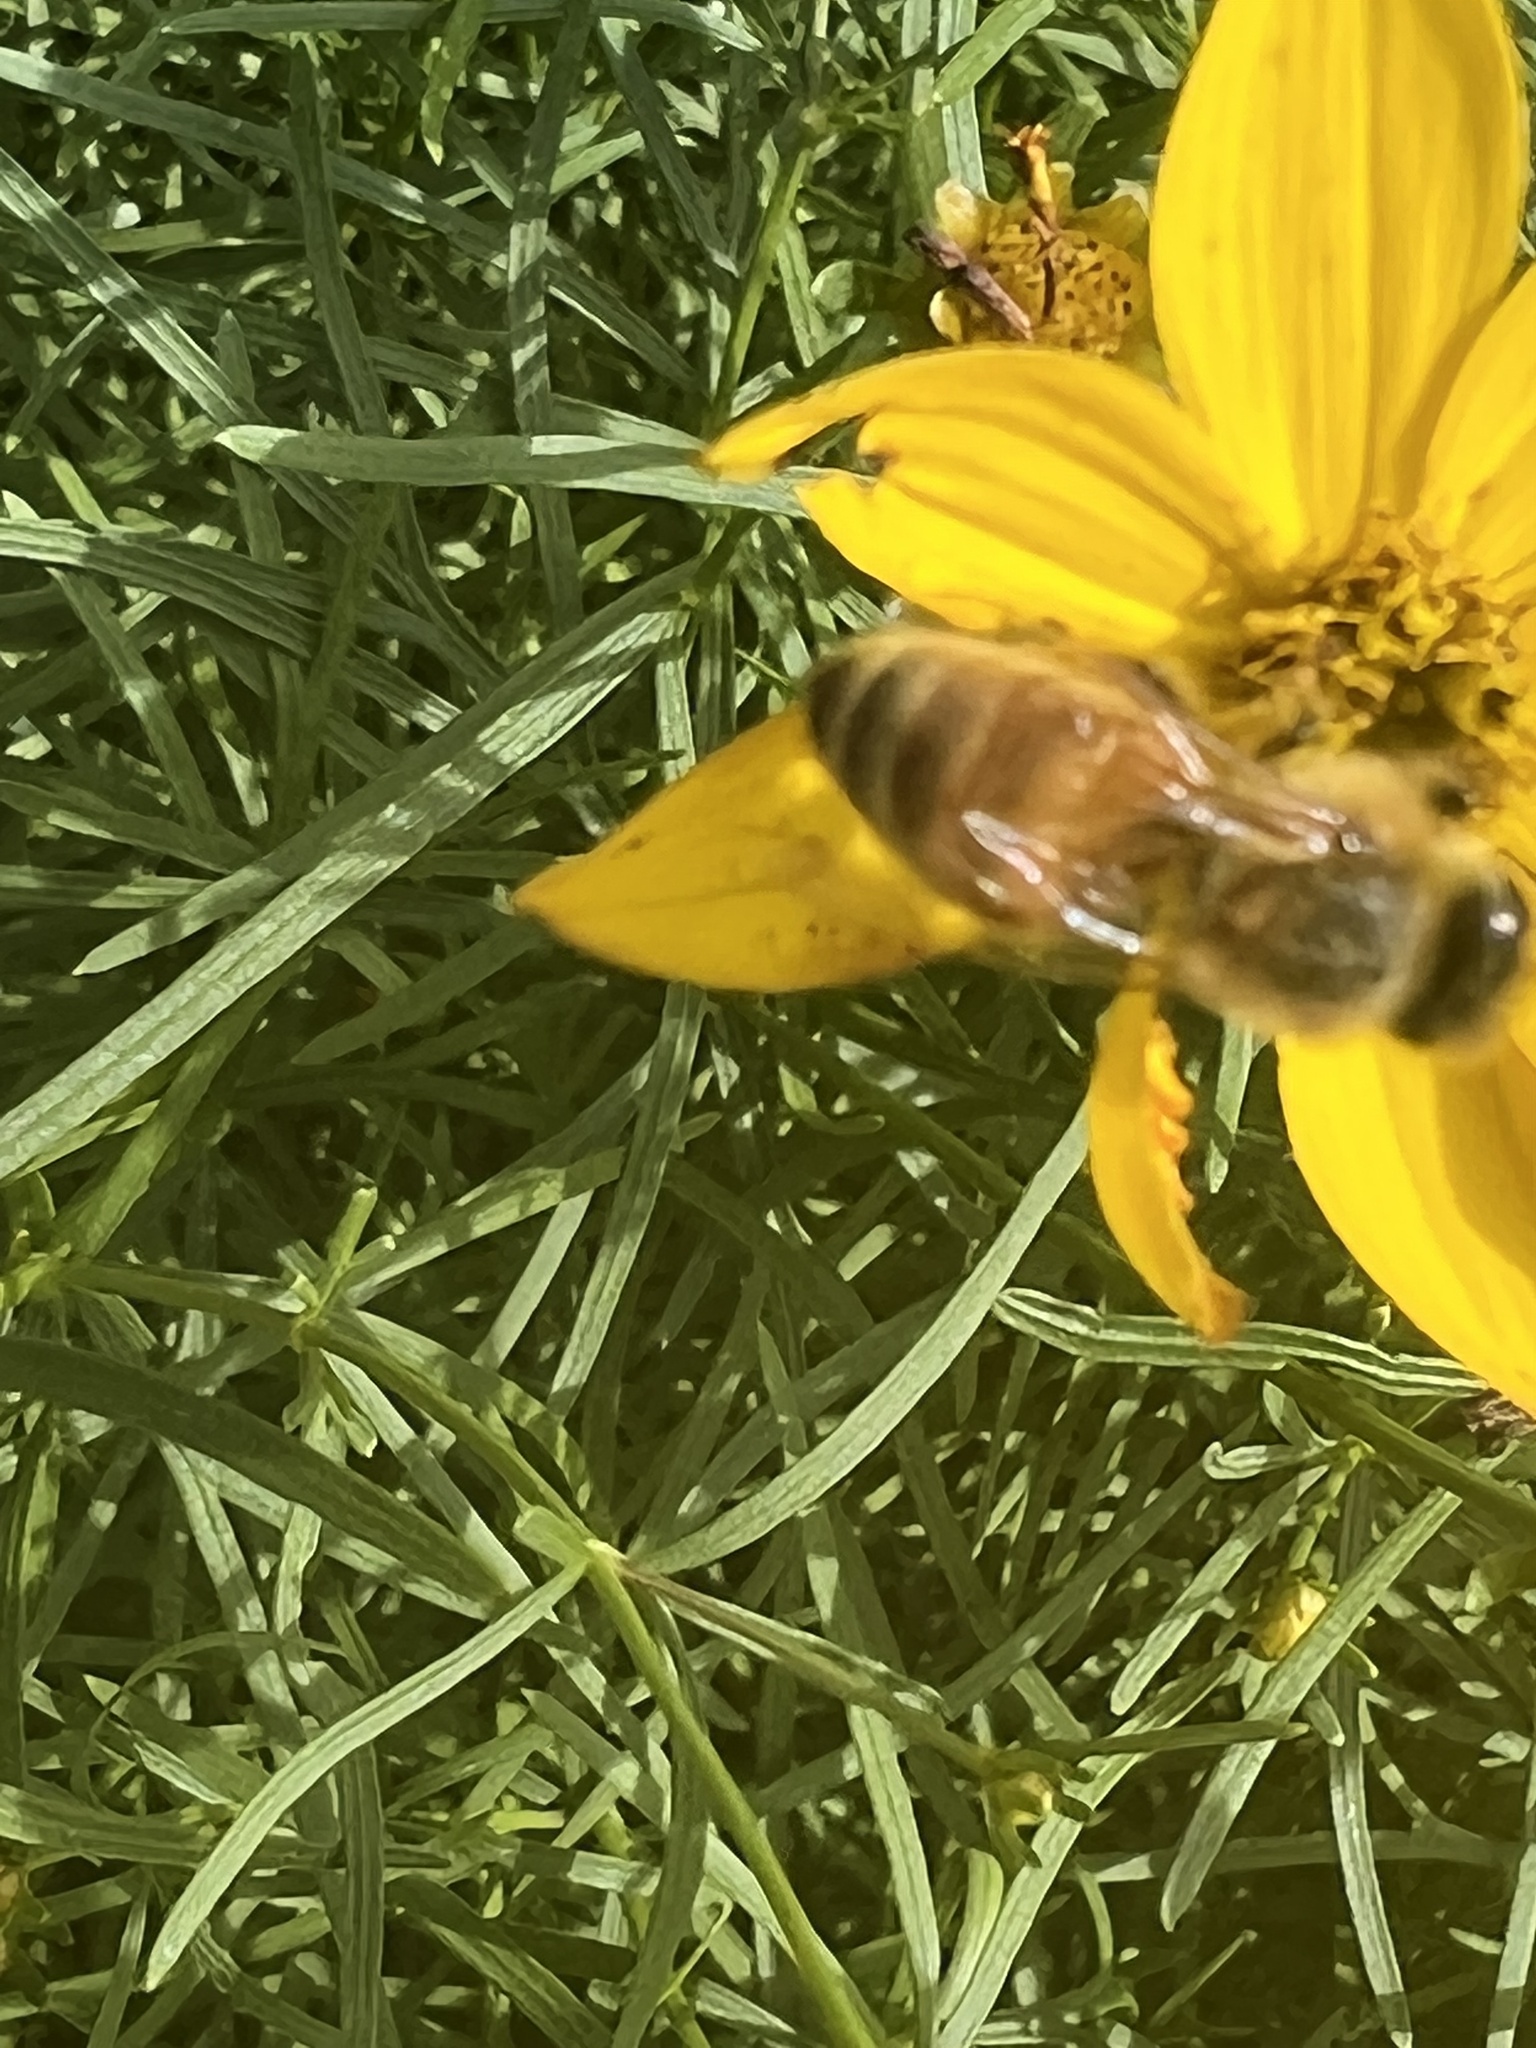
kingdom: Animalia
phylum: Arthropoda
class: Insecta
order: Hymenoptera
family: Apidae
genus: Apis
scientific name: Apis mellifera
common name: Honey bee
